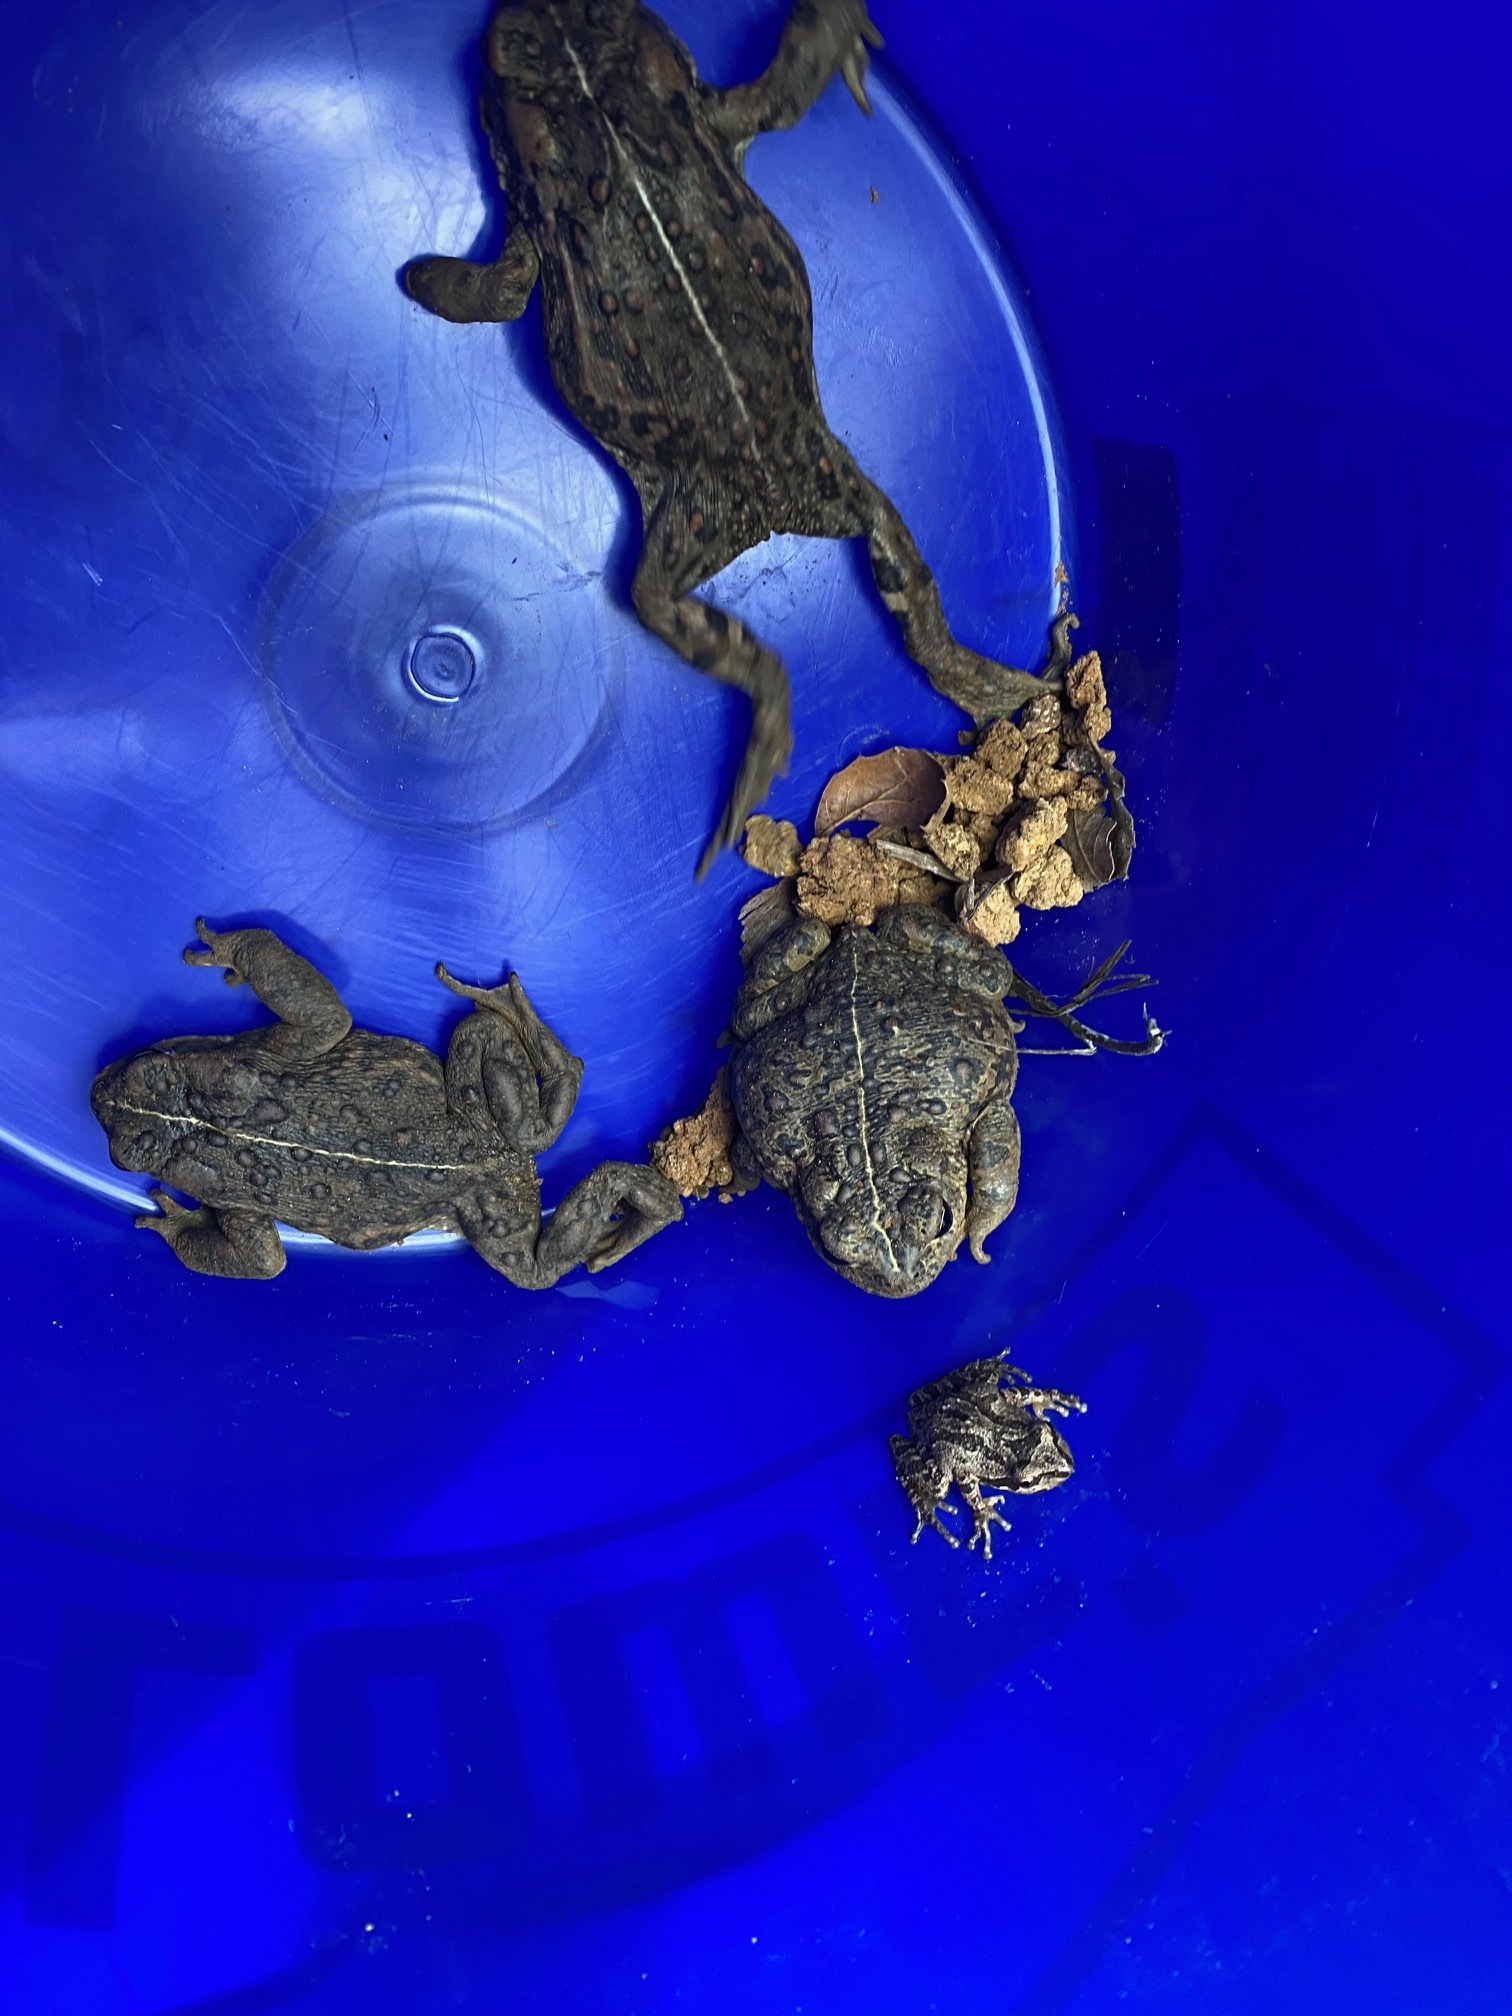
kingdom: Animalia
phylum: Chordata
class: Amphibia
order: Anura
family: Hylidae
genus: Pseudacris
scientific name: Pseudacris regilla
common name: Pacific chorus frog
